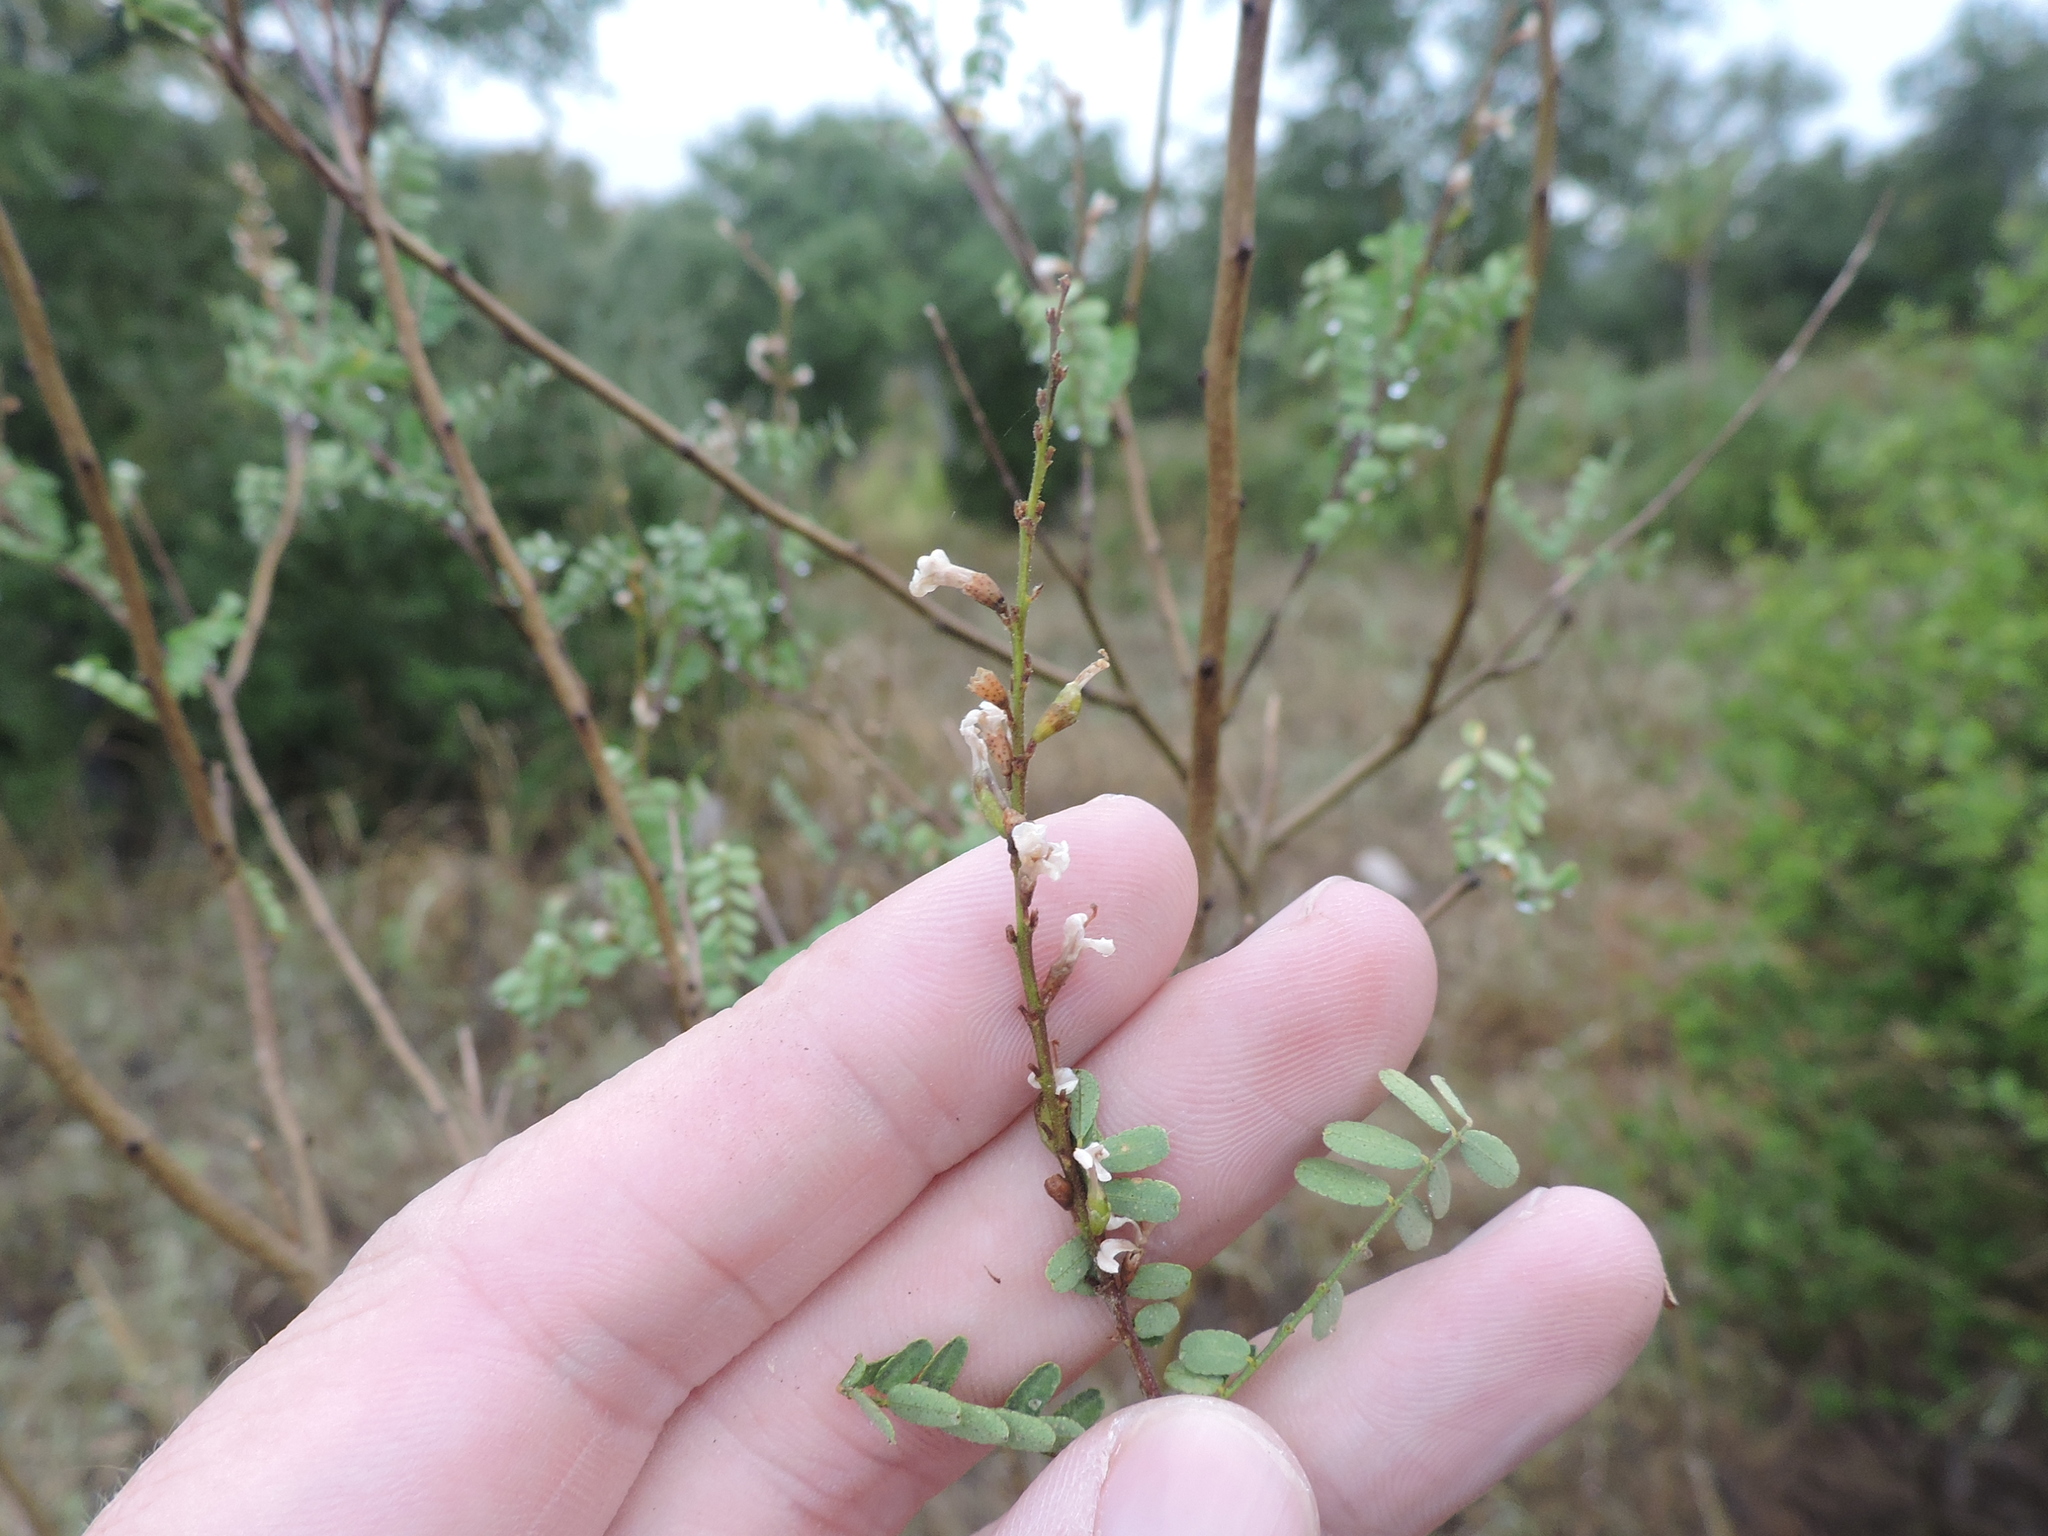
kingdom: Plantae
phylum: Tracheophyta
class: Magnoliopsida
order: Fabales
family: Fabaceae
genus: Eysenhardtia
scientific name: Eysenhardtia texana
